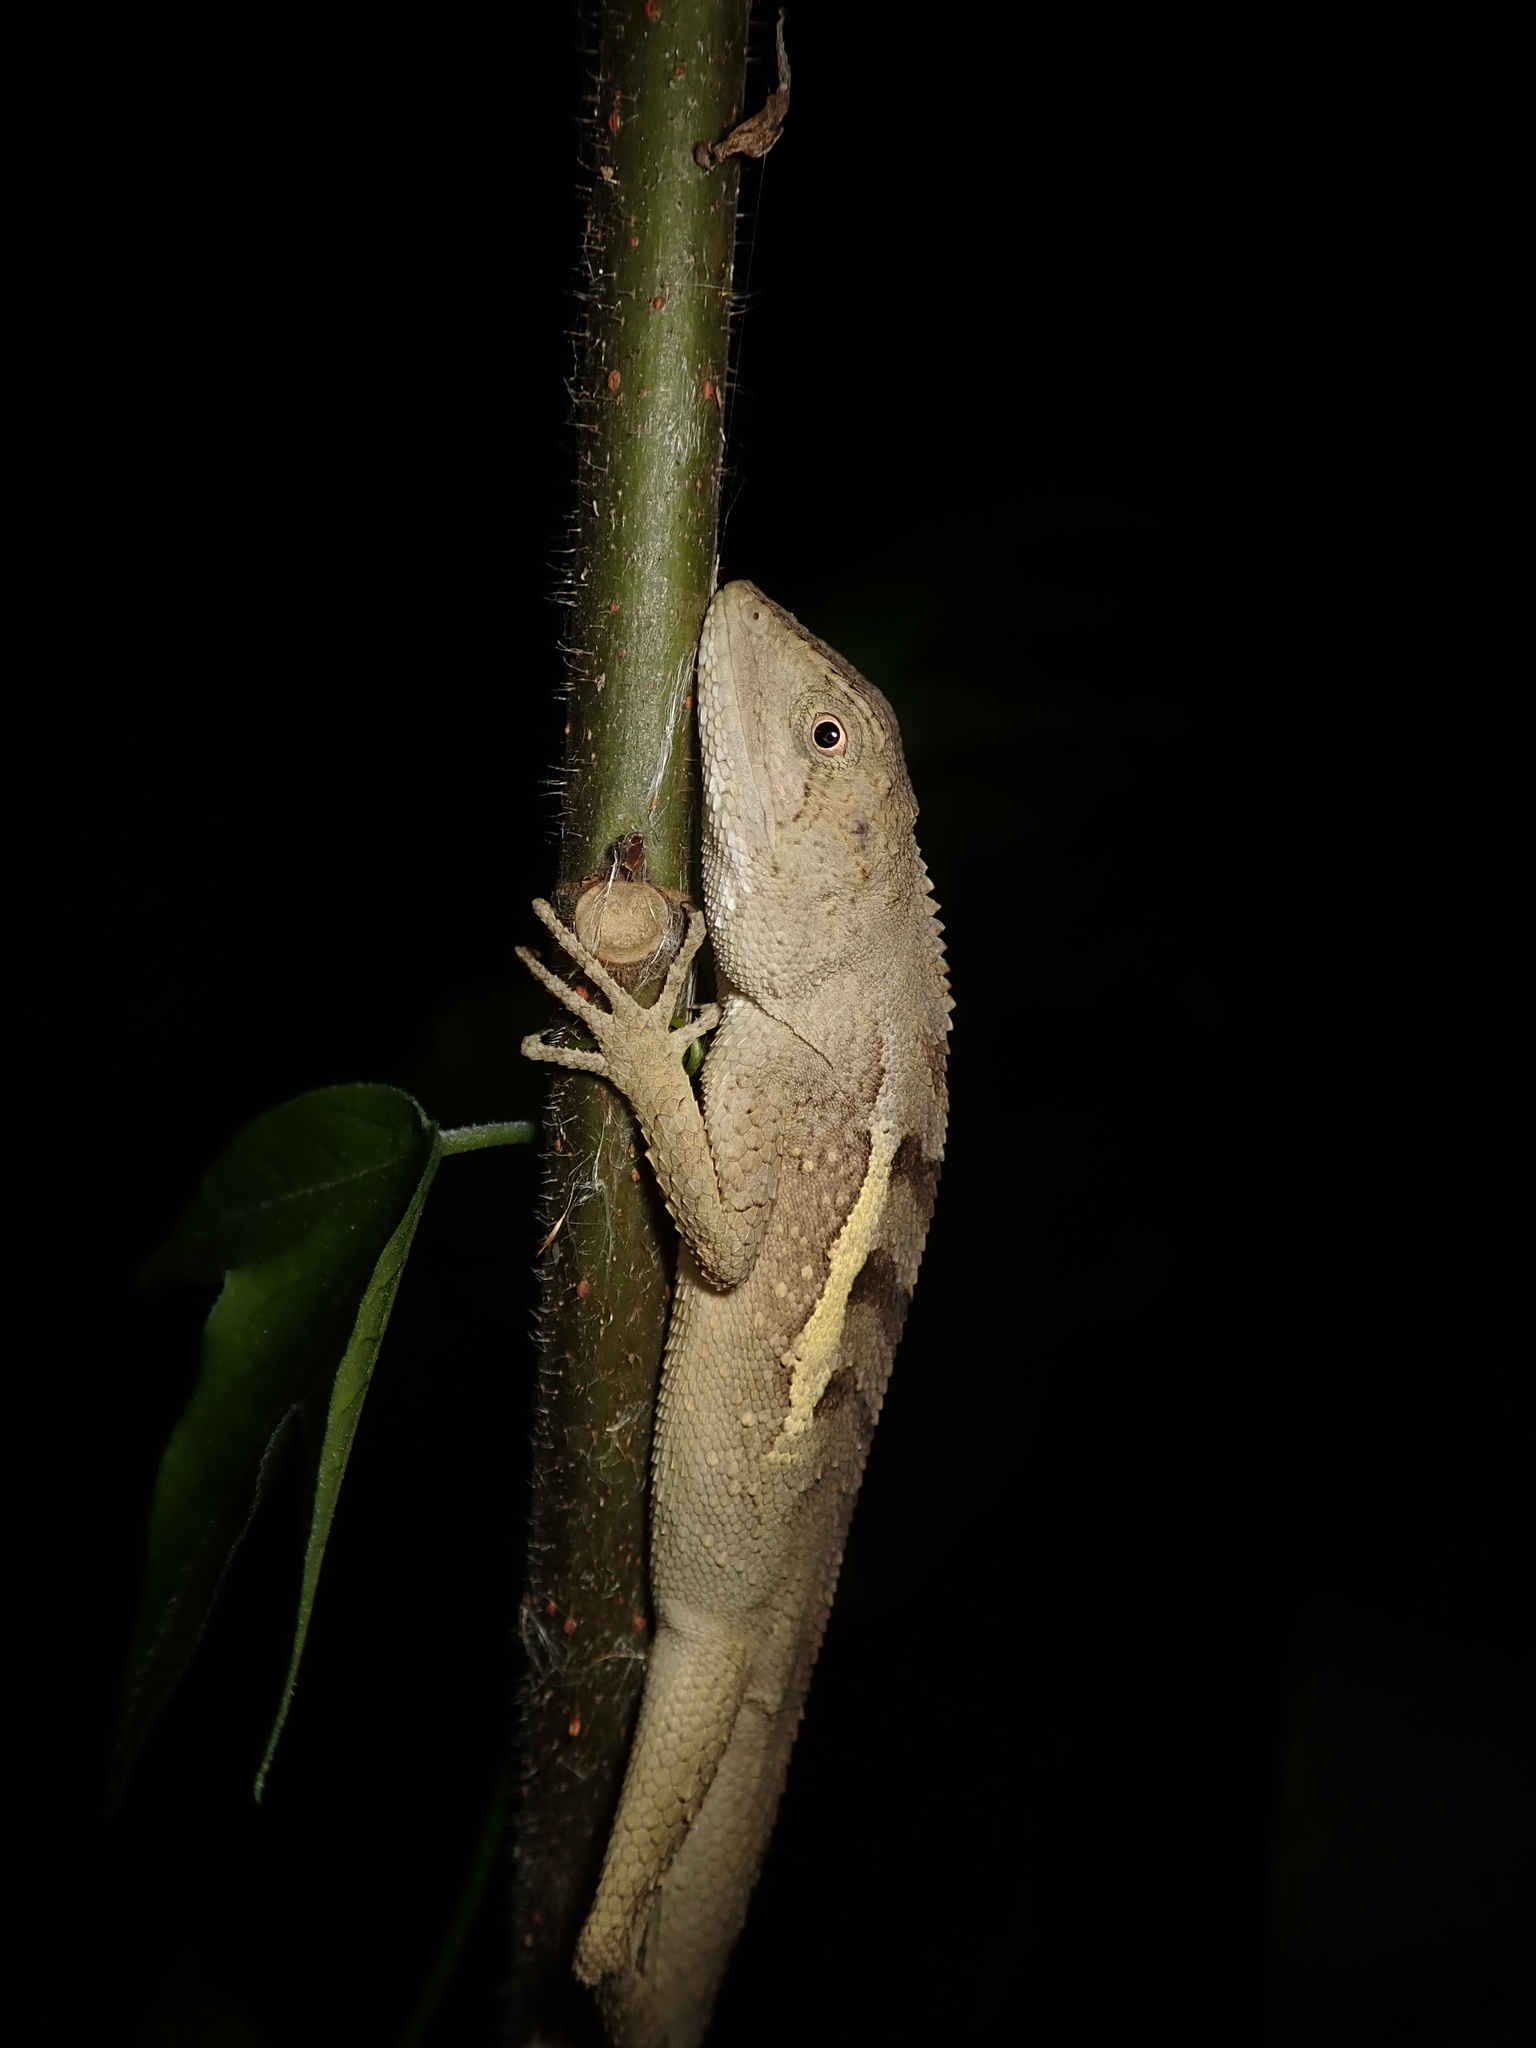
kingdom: Animalia
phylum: Chordata
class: Squamata
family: Agamidae
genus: Diploderma
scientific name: Diploderma swinhonis
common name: Taiwan japalure
